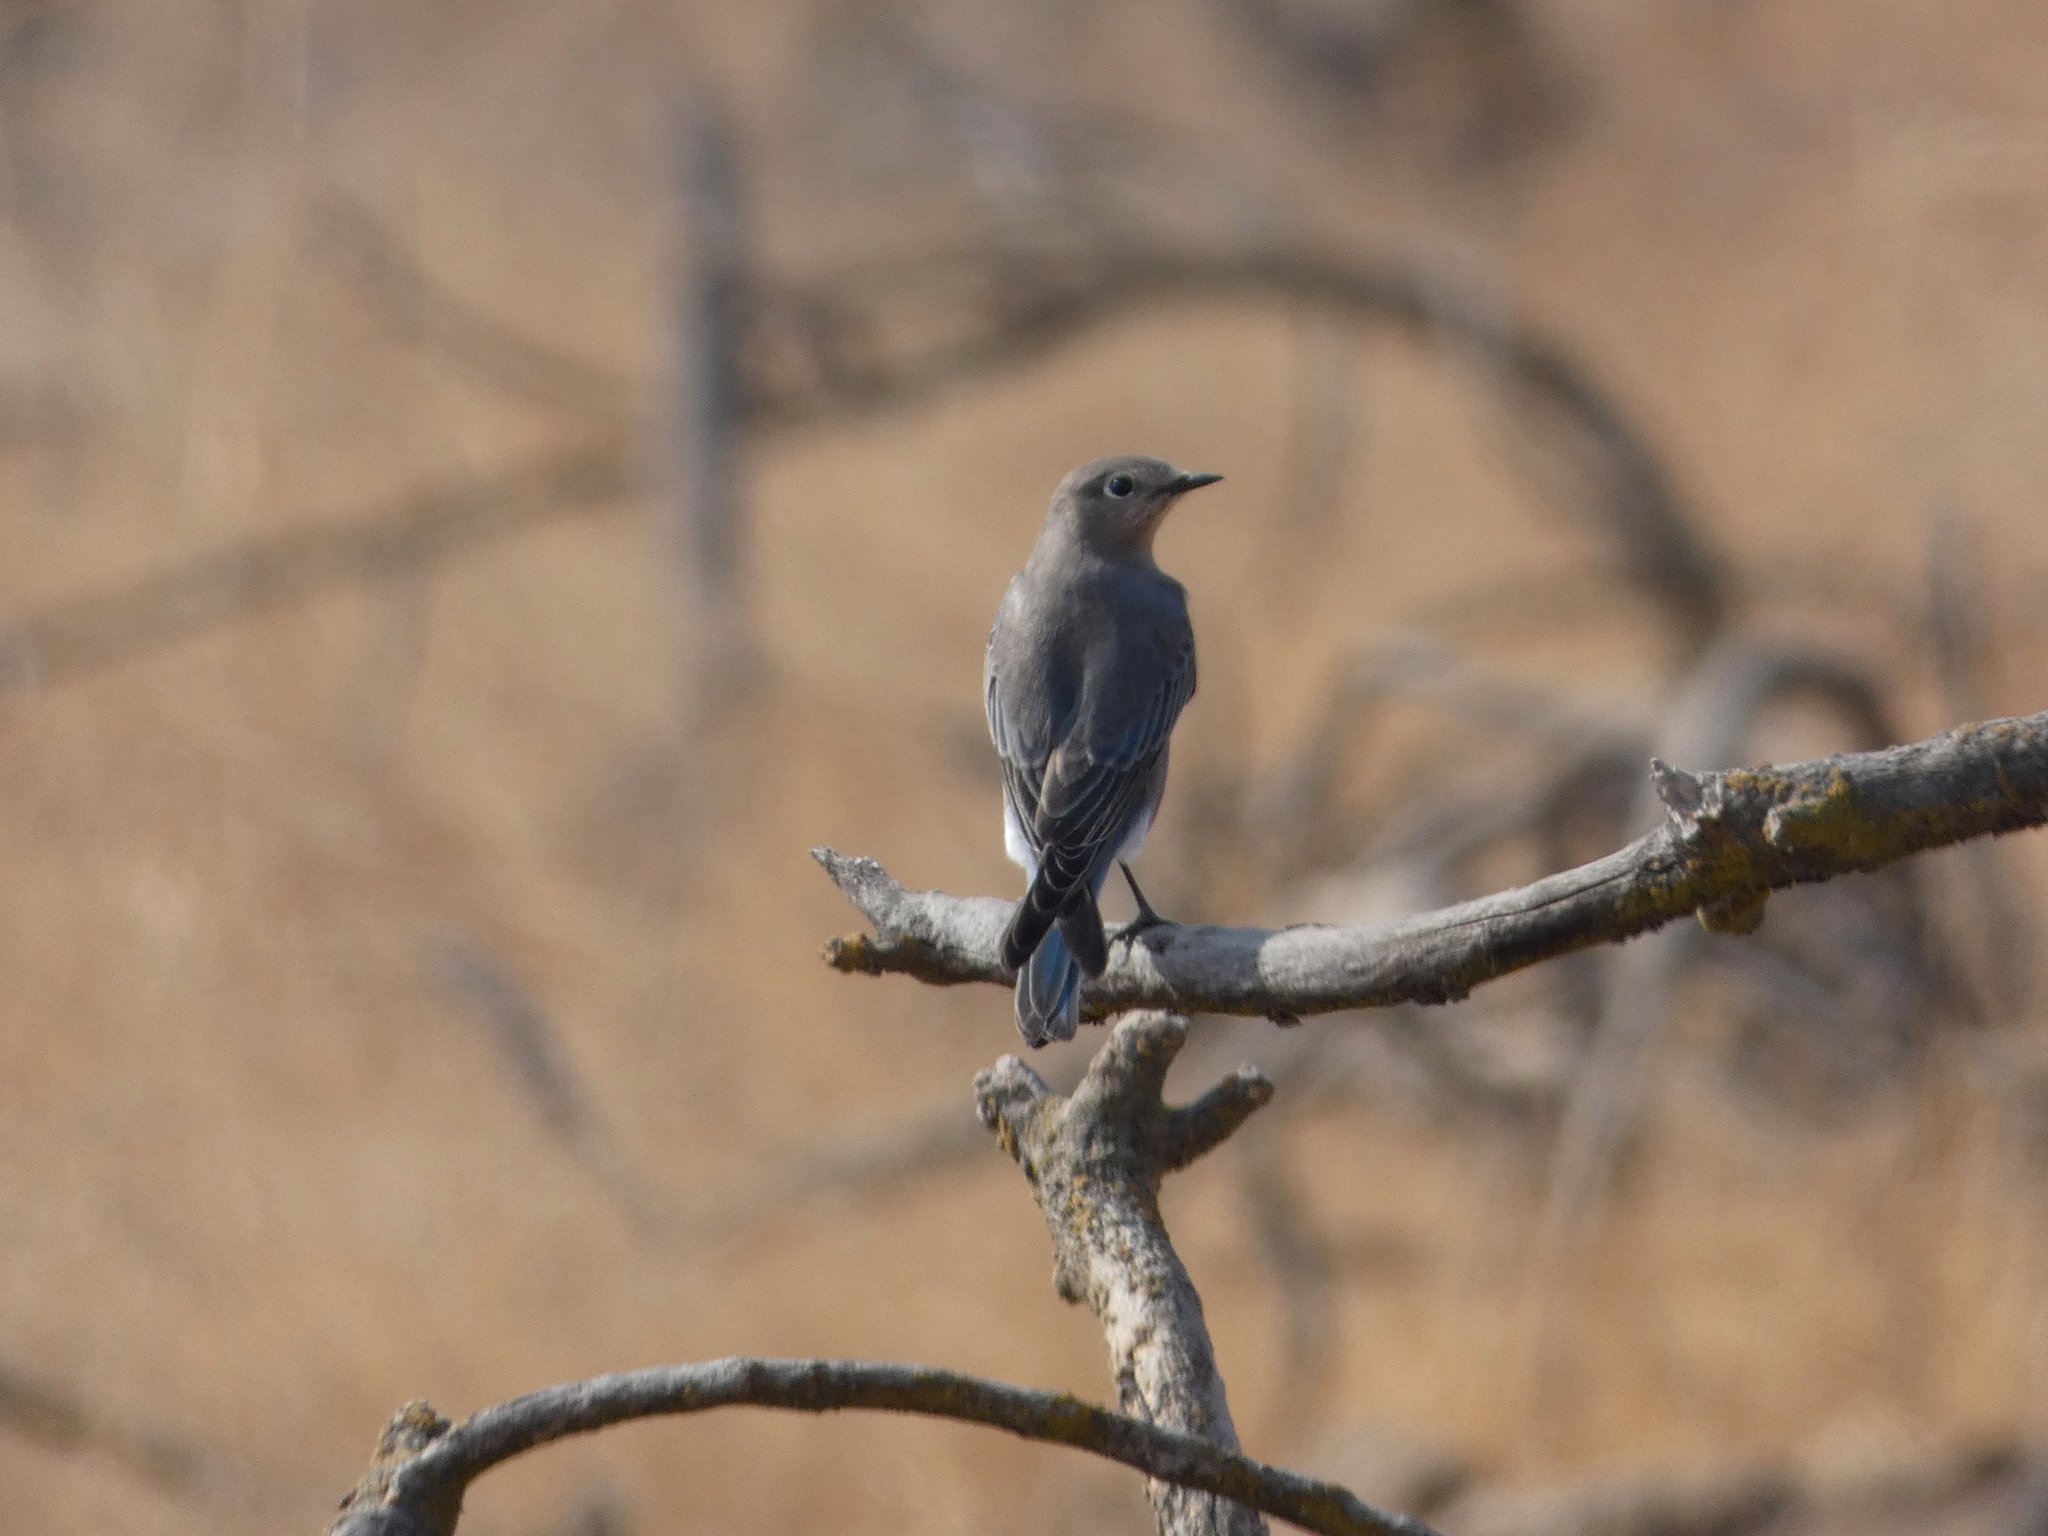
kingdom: Animalia
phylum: Chordata
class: Aves
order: Passeriformes
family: Turdidae
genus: Myadestes
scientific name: Myadestes townsendi
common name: Townsend's solitaire
